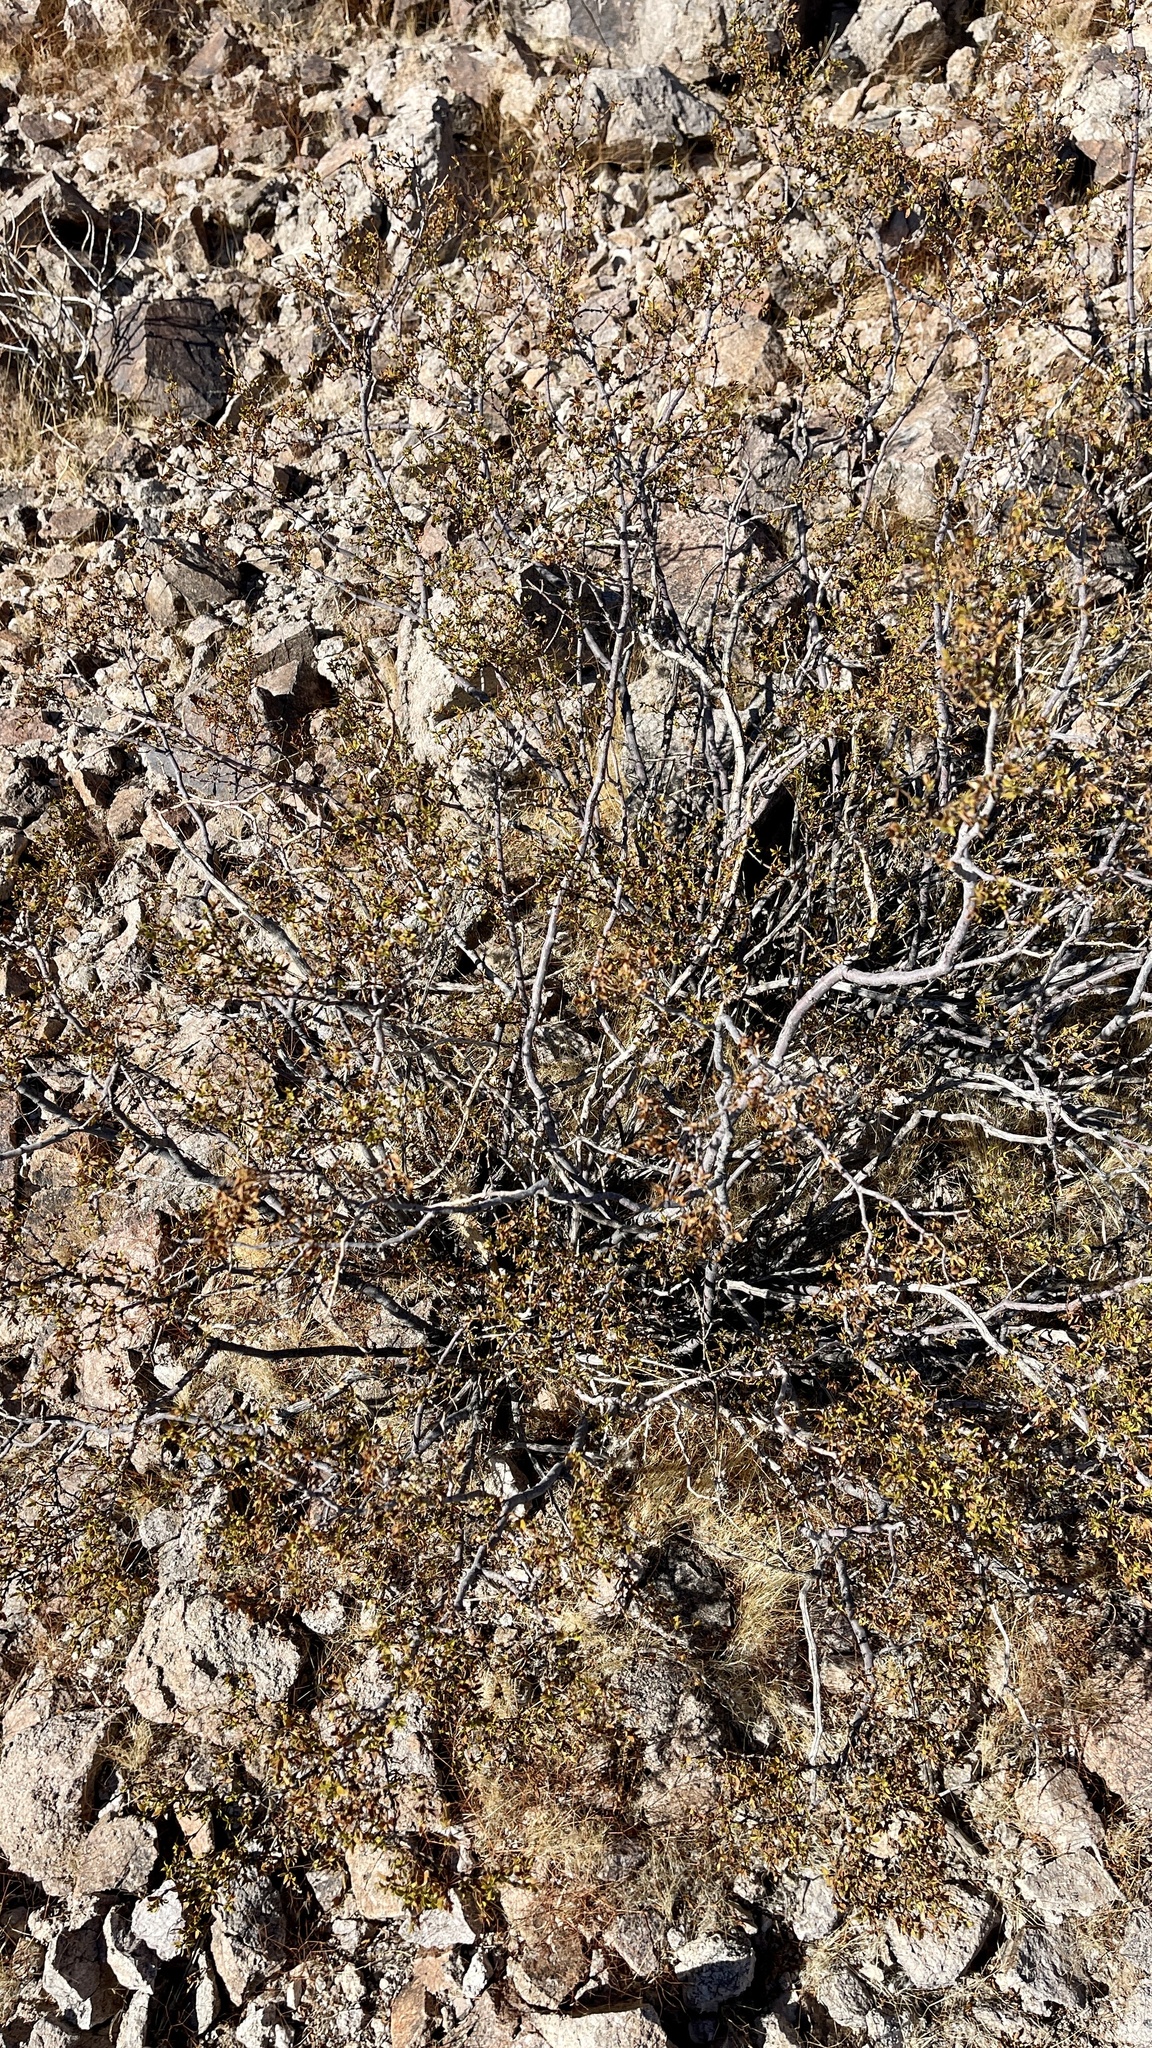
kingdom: Plantae
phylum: Tracheophyta
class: Magnoliopsida
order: Zygophyllales
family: Zygophyllaceae
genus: Larrea
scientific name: Larrea tridentata
